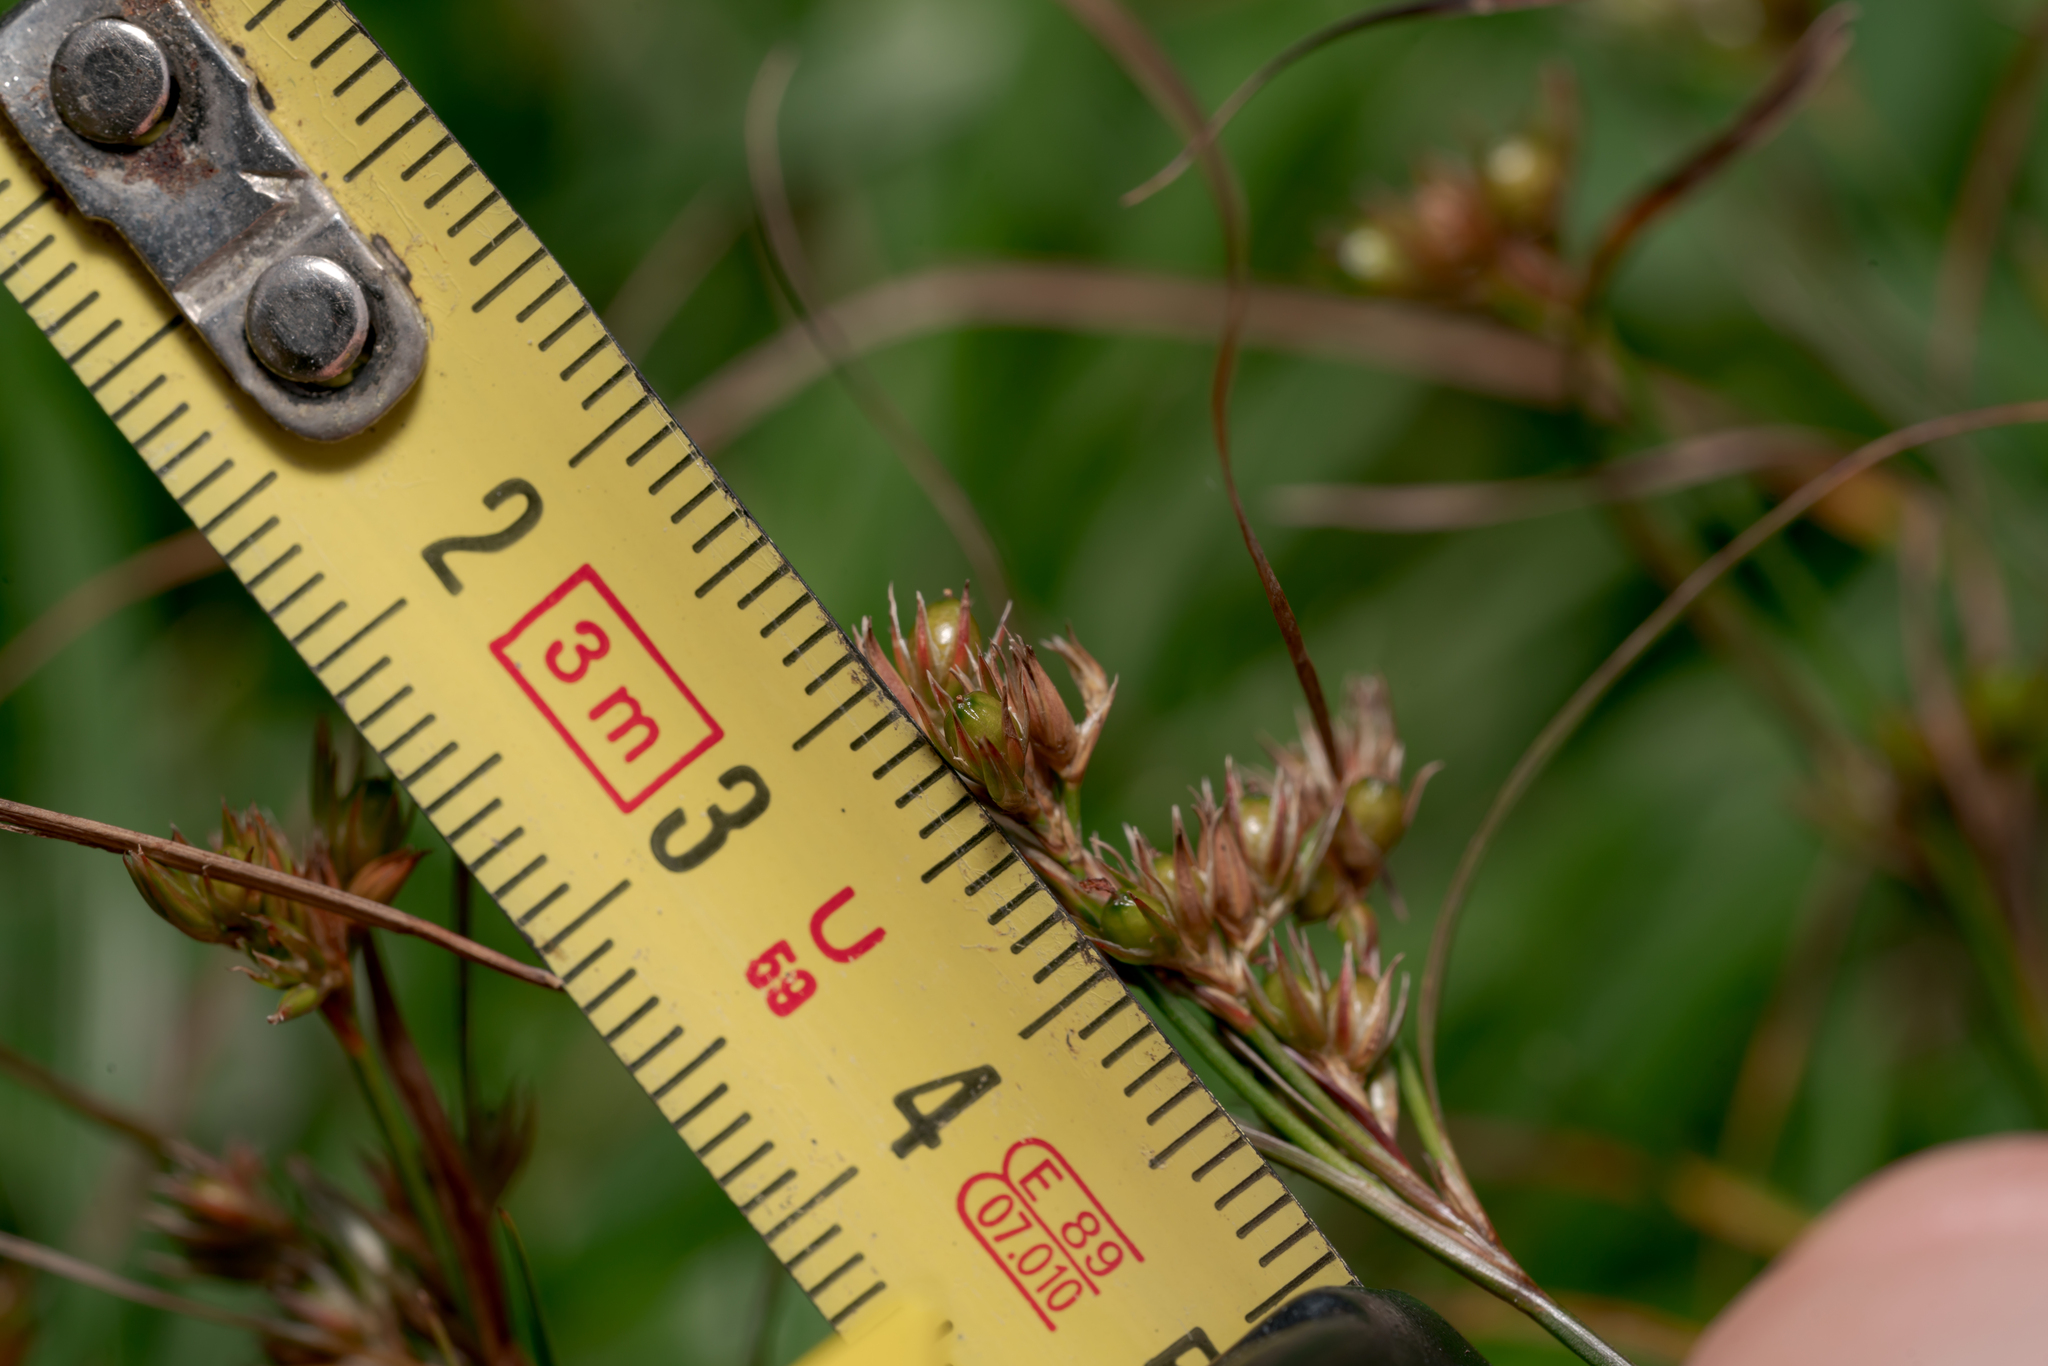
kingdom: Plantae
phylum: Tracheophyta
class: Liliopsida
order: Poales
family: Juncaceae
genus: Juncus
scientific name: Juncus tenuis
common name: Slender rush
